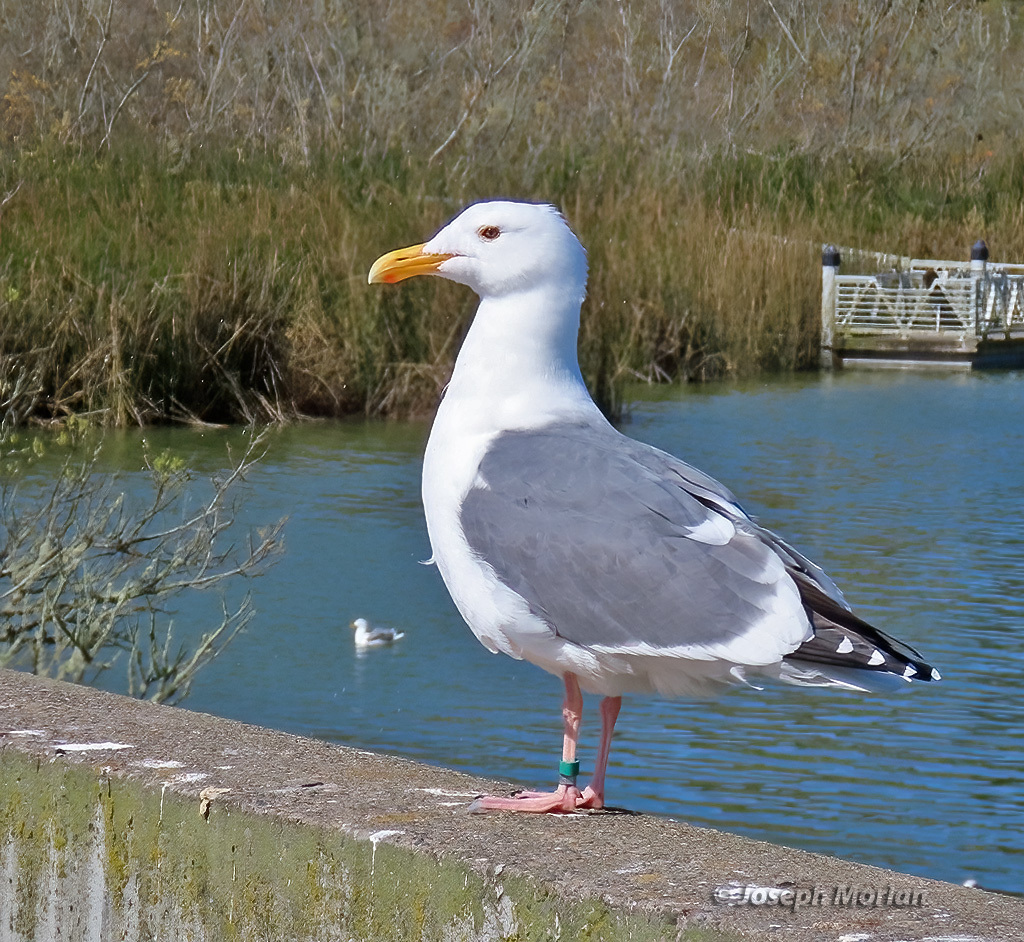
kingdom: Animalia
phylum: Chordata
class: Aves
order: Charadriiformes
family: Laridae
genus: Larus
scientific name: Larus occidentalis
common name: Western gull
